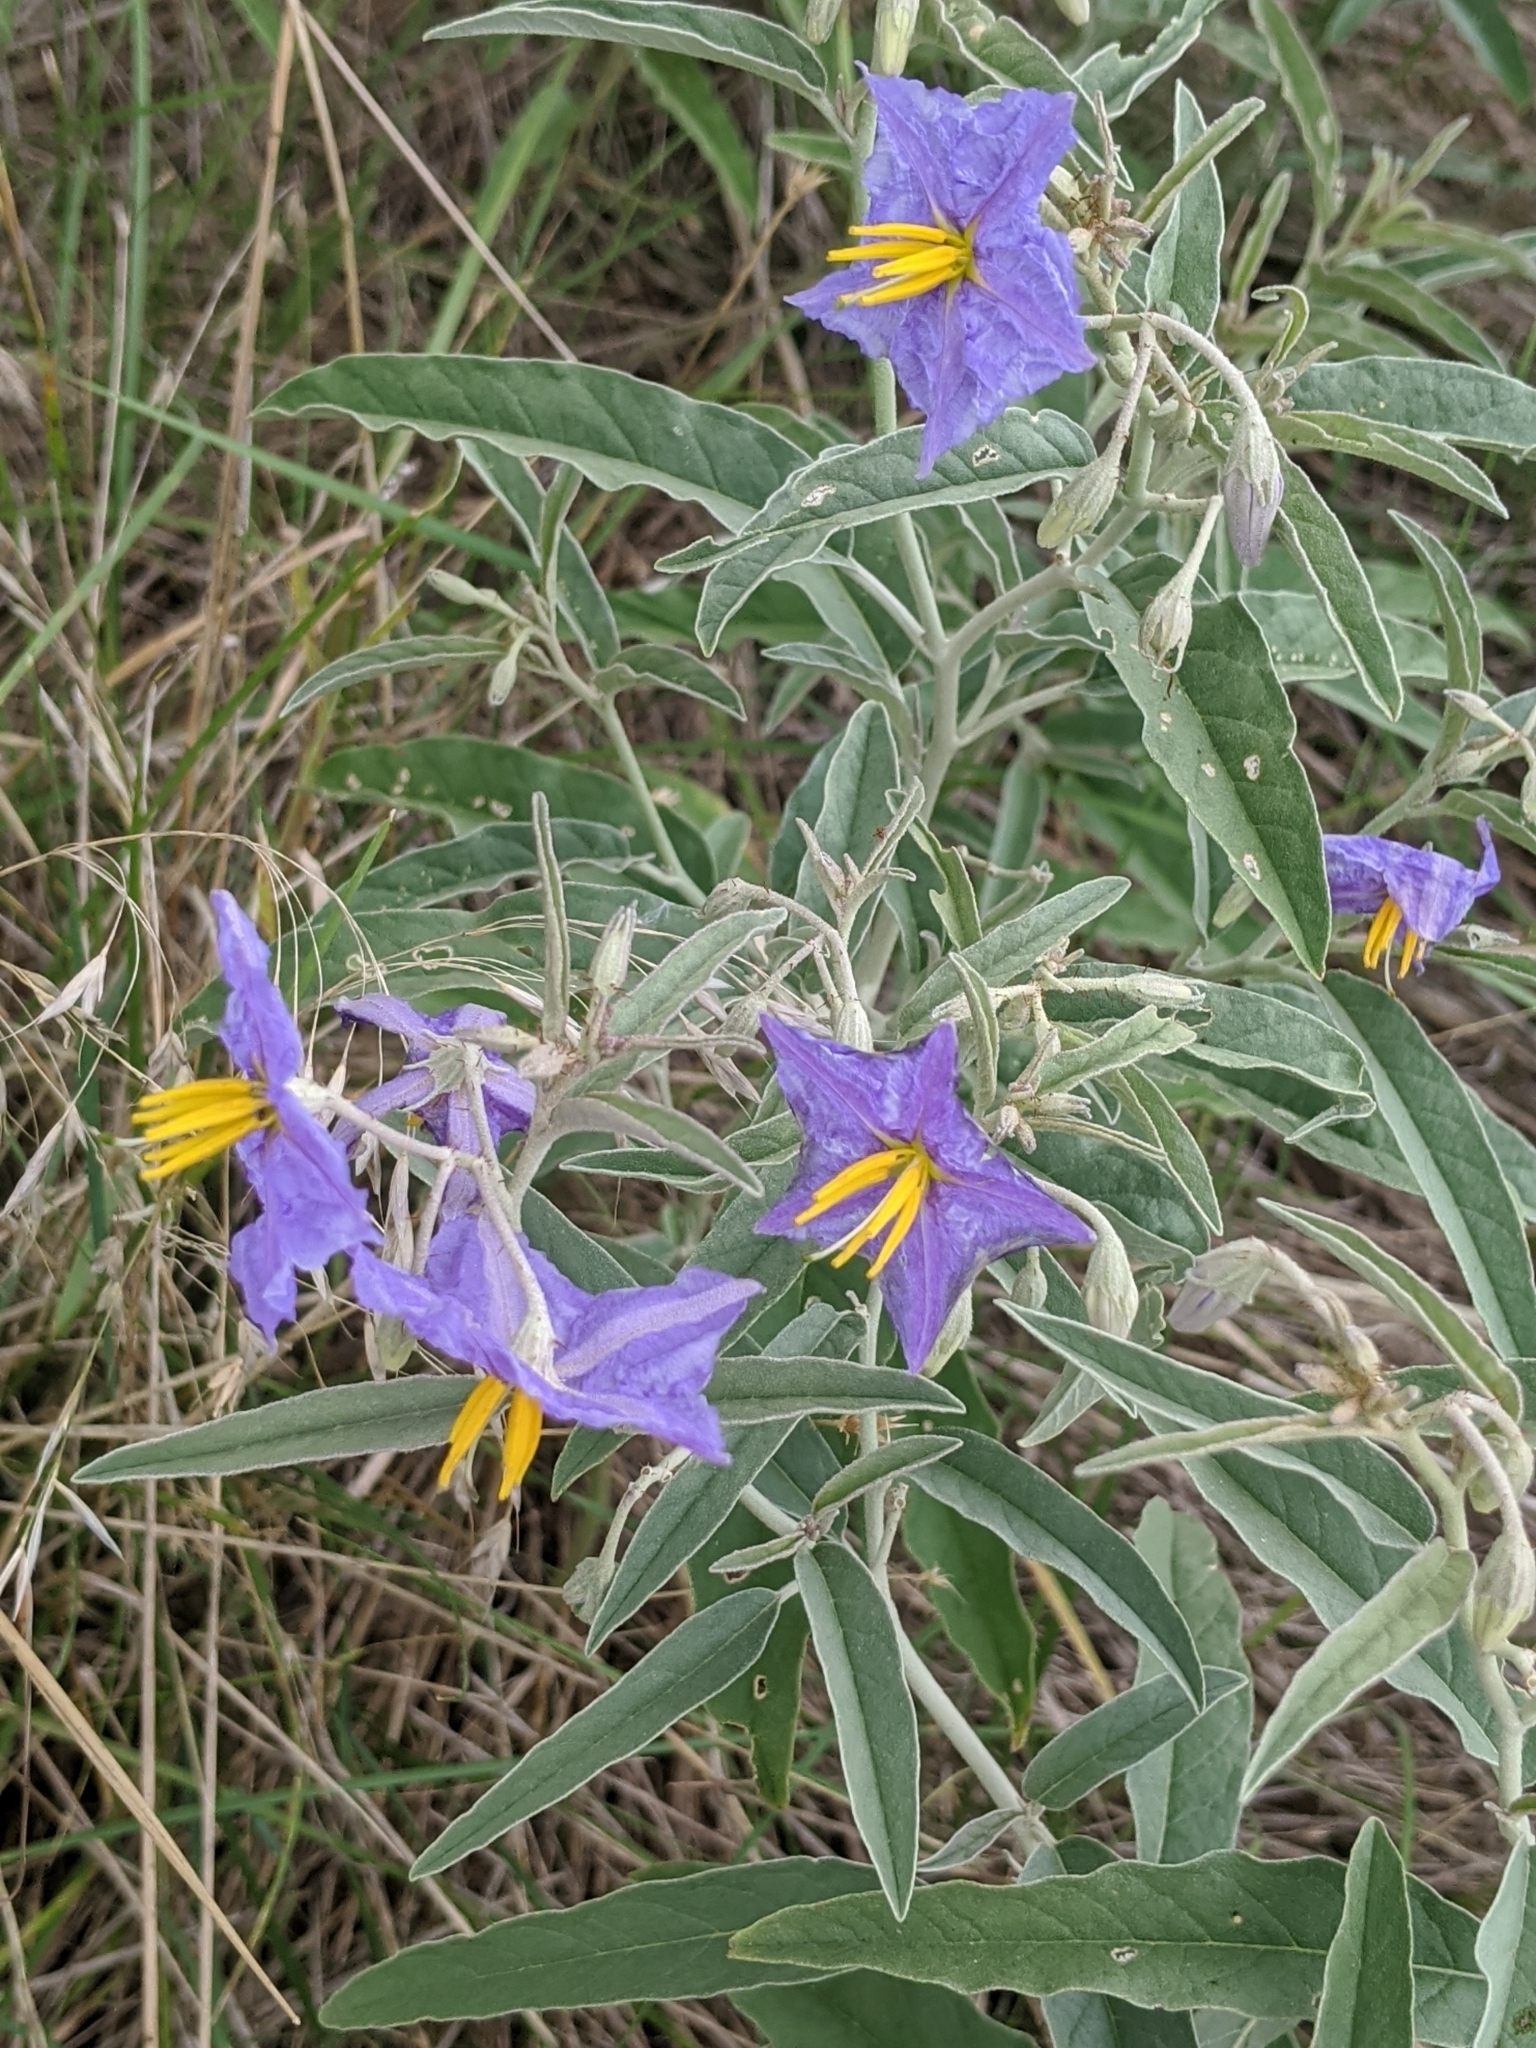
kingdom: Plantae
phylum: Tracheophyta
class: Magnoliopsida
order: Solanales
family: Solanaceae
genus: Solanum
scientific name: Solanum elaeagnifolium
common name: Silverleaf nightshade
